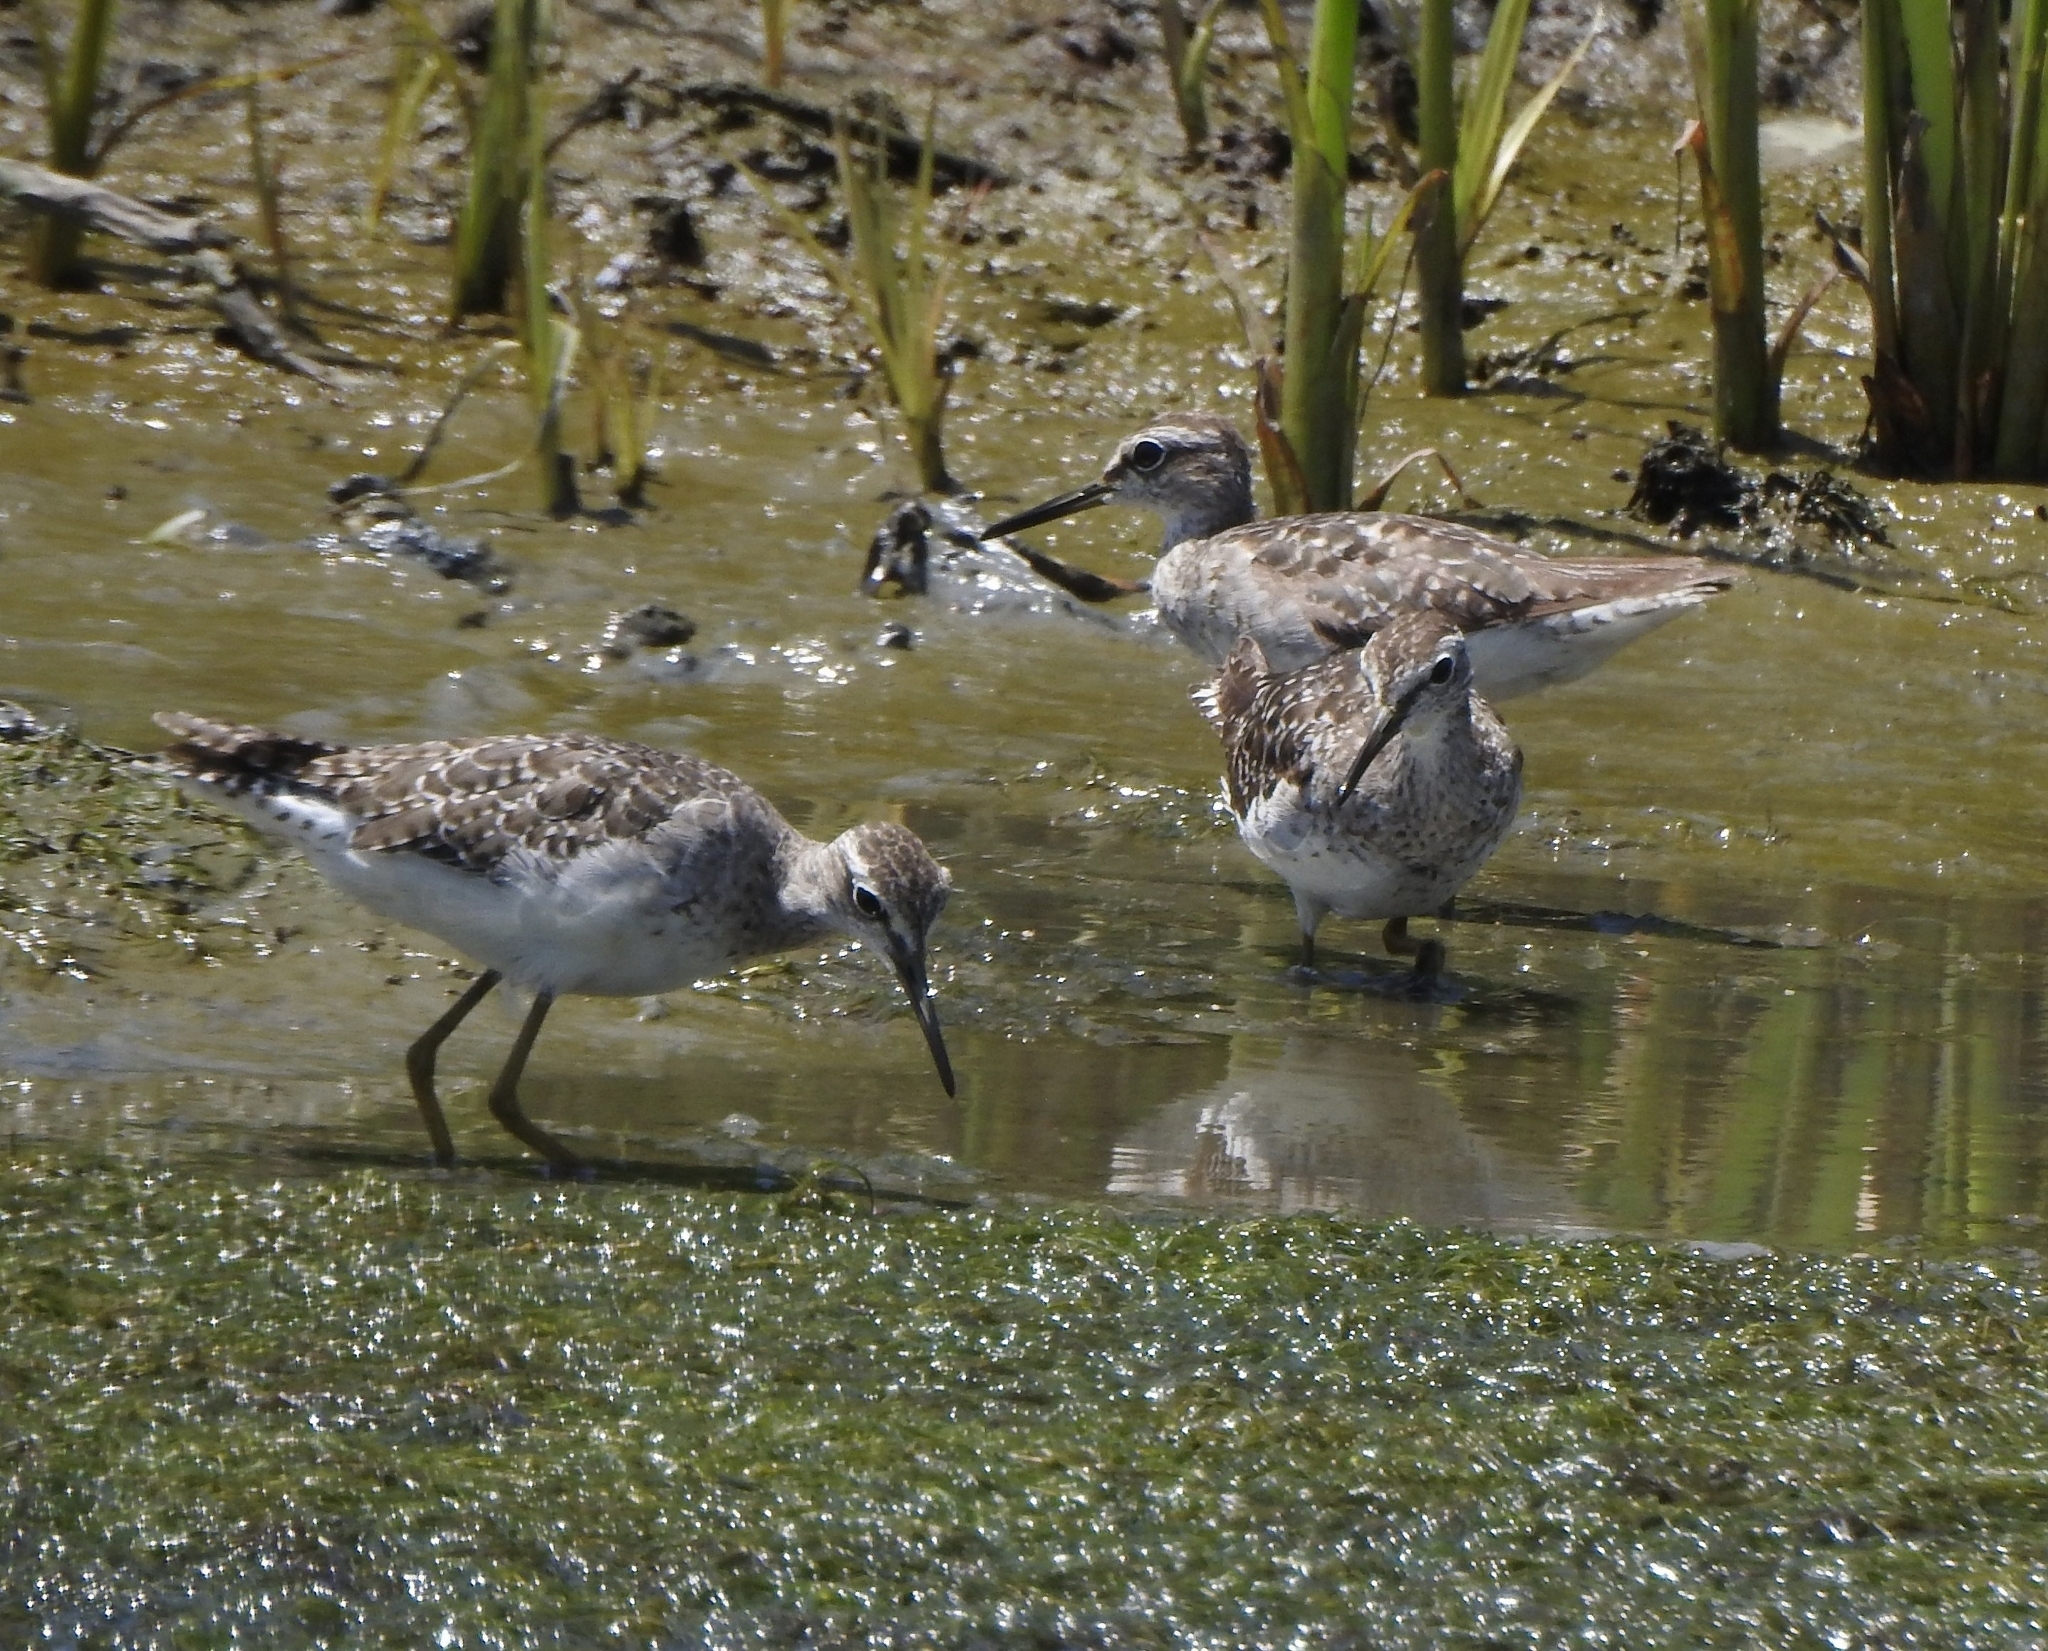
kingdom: Animalia
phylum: Chordata
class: Aves
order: Charadriiformes
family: Scolopacidae
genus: Tringa
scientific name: Tringa glareola
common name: Wood sandpiper
